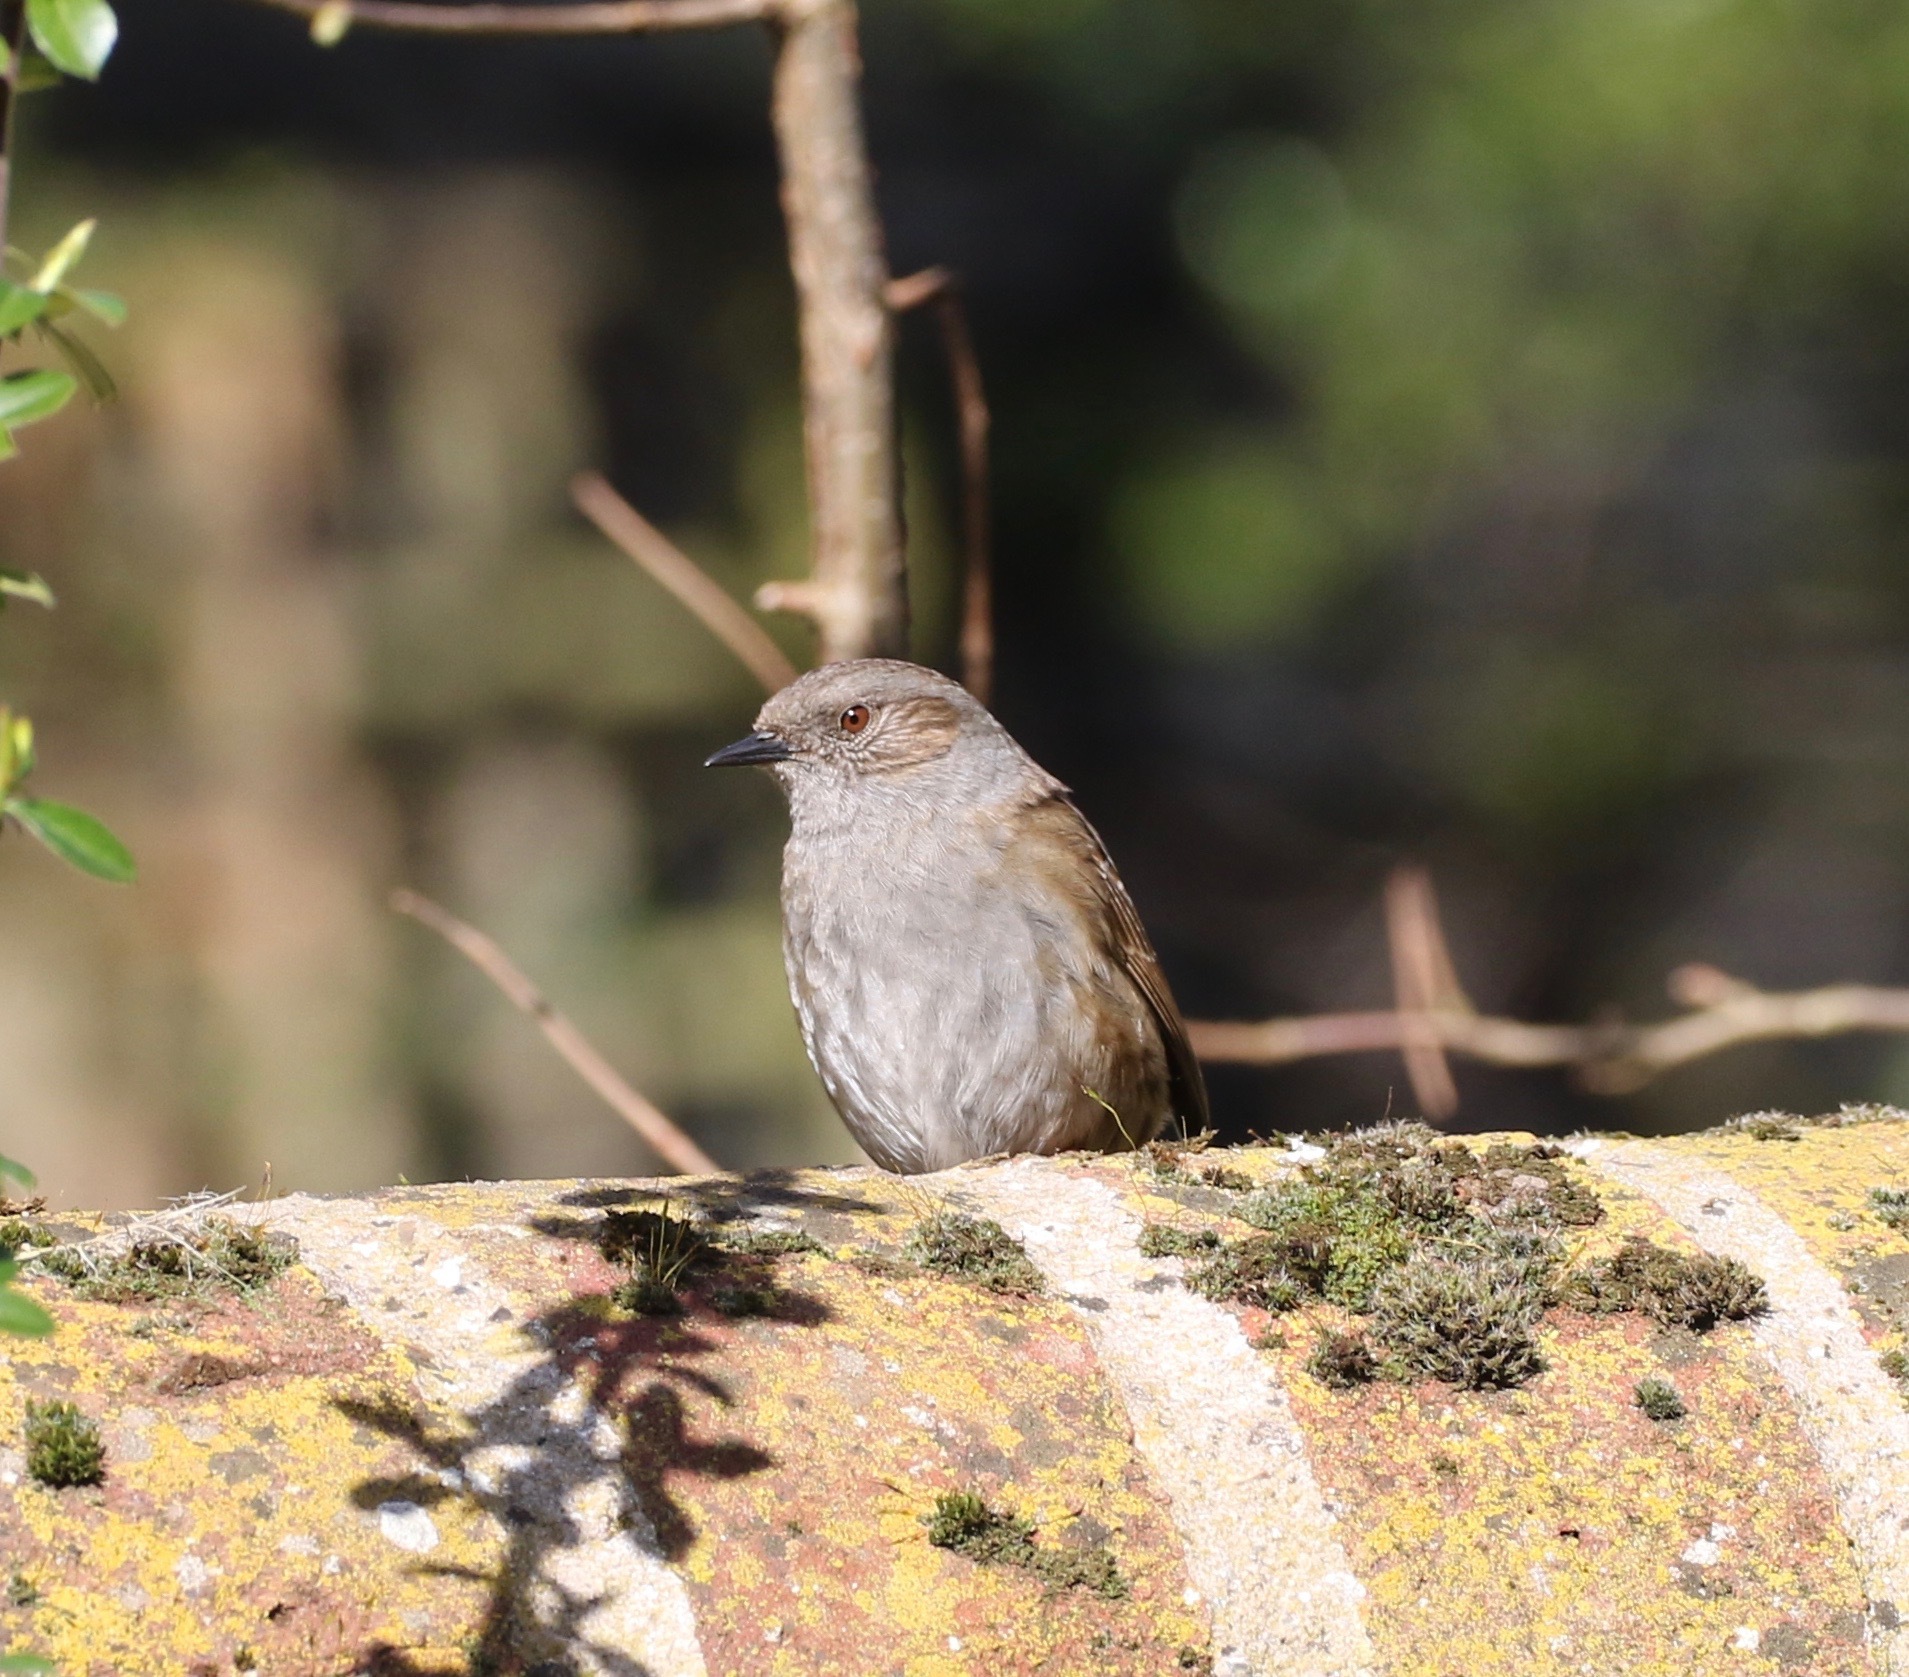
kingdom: Animalia
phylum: Chordata
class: Aves
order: Passeriformes
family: Prunellidae
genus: Prunella
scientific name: Prunella modularis
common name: Dunnock
